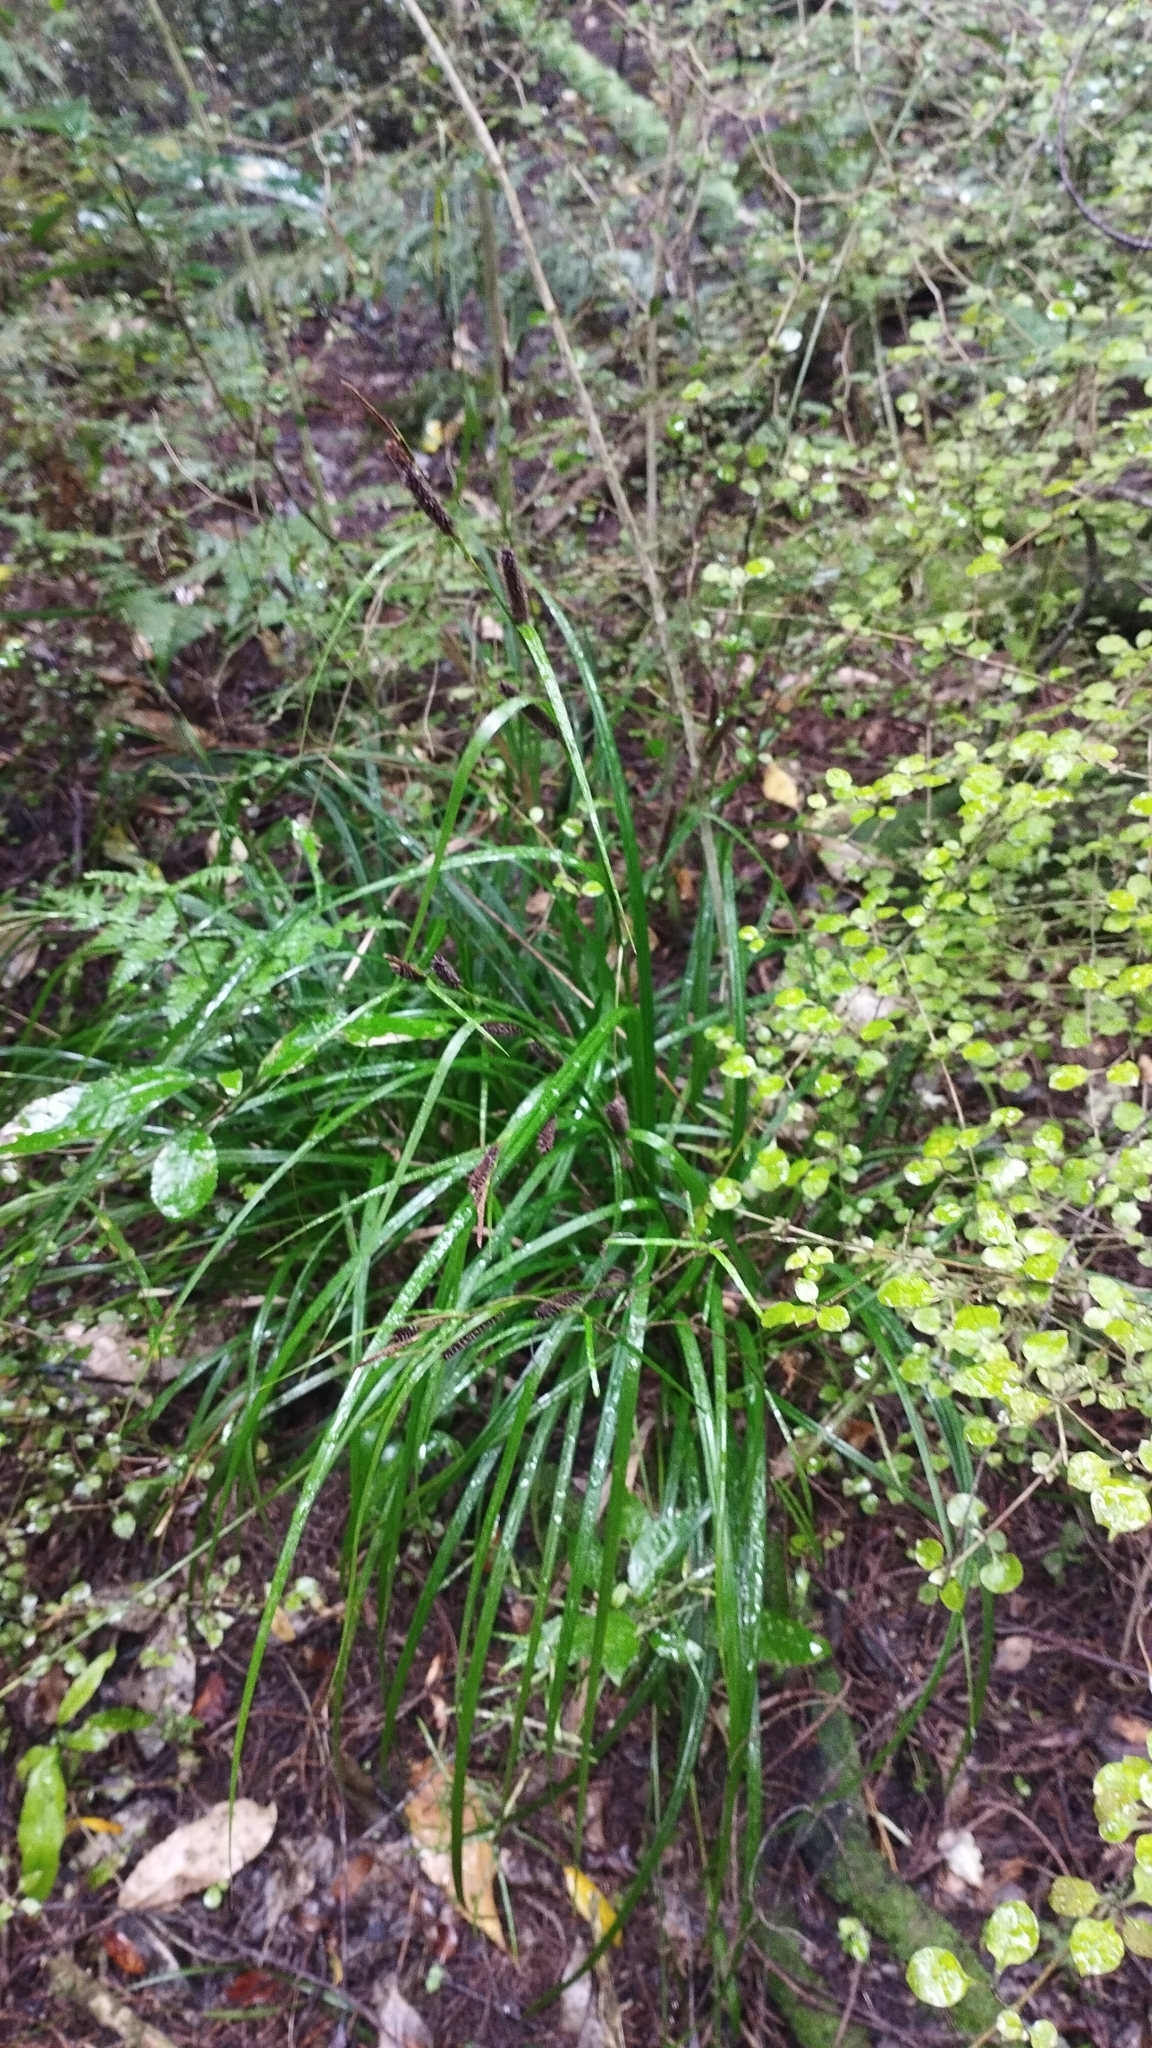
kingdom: Plantae
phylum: Tracheophyta
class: Liliopsida
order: Poales
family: Cyperaceae
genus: Carex
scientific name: Carex solandri
